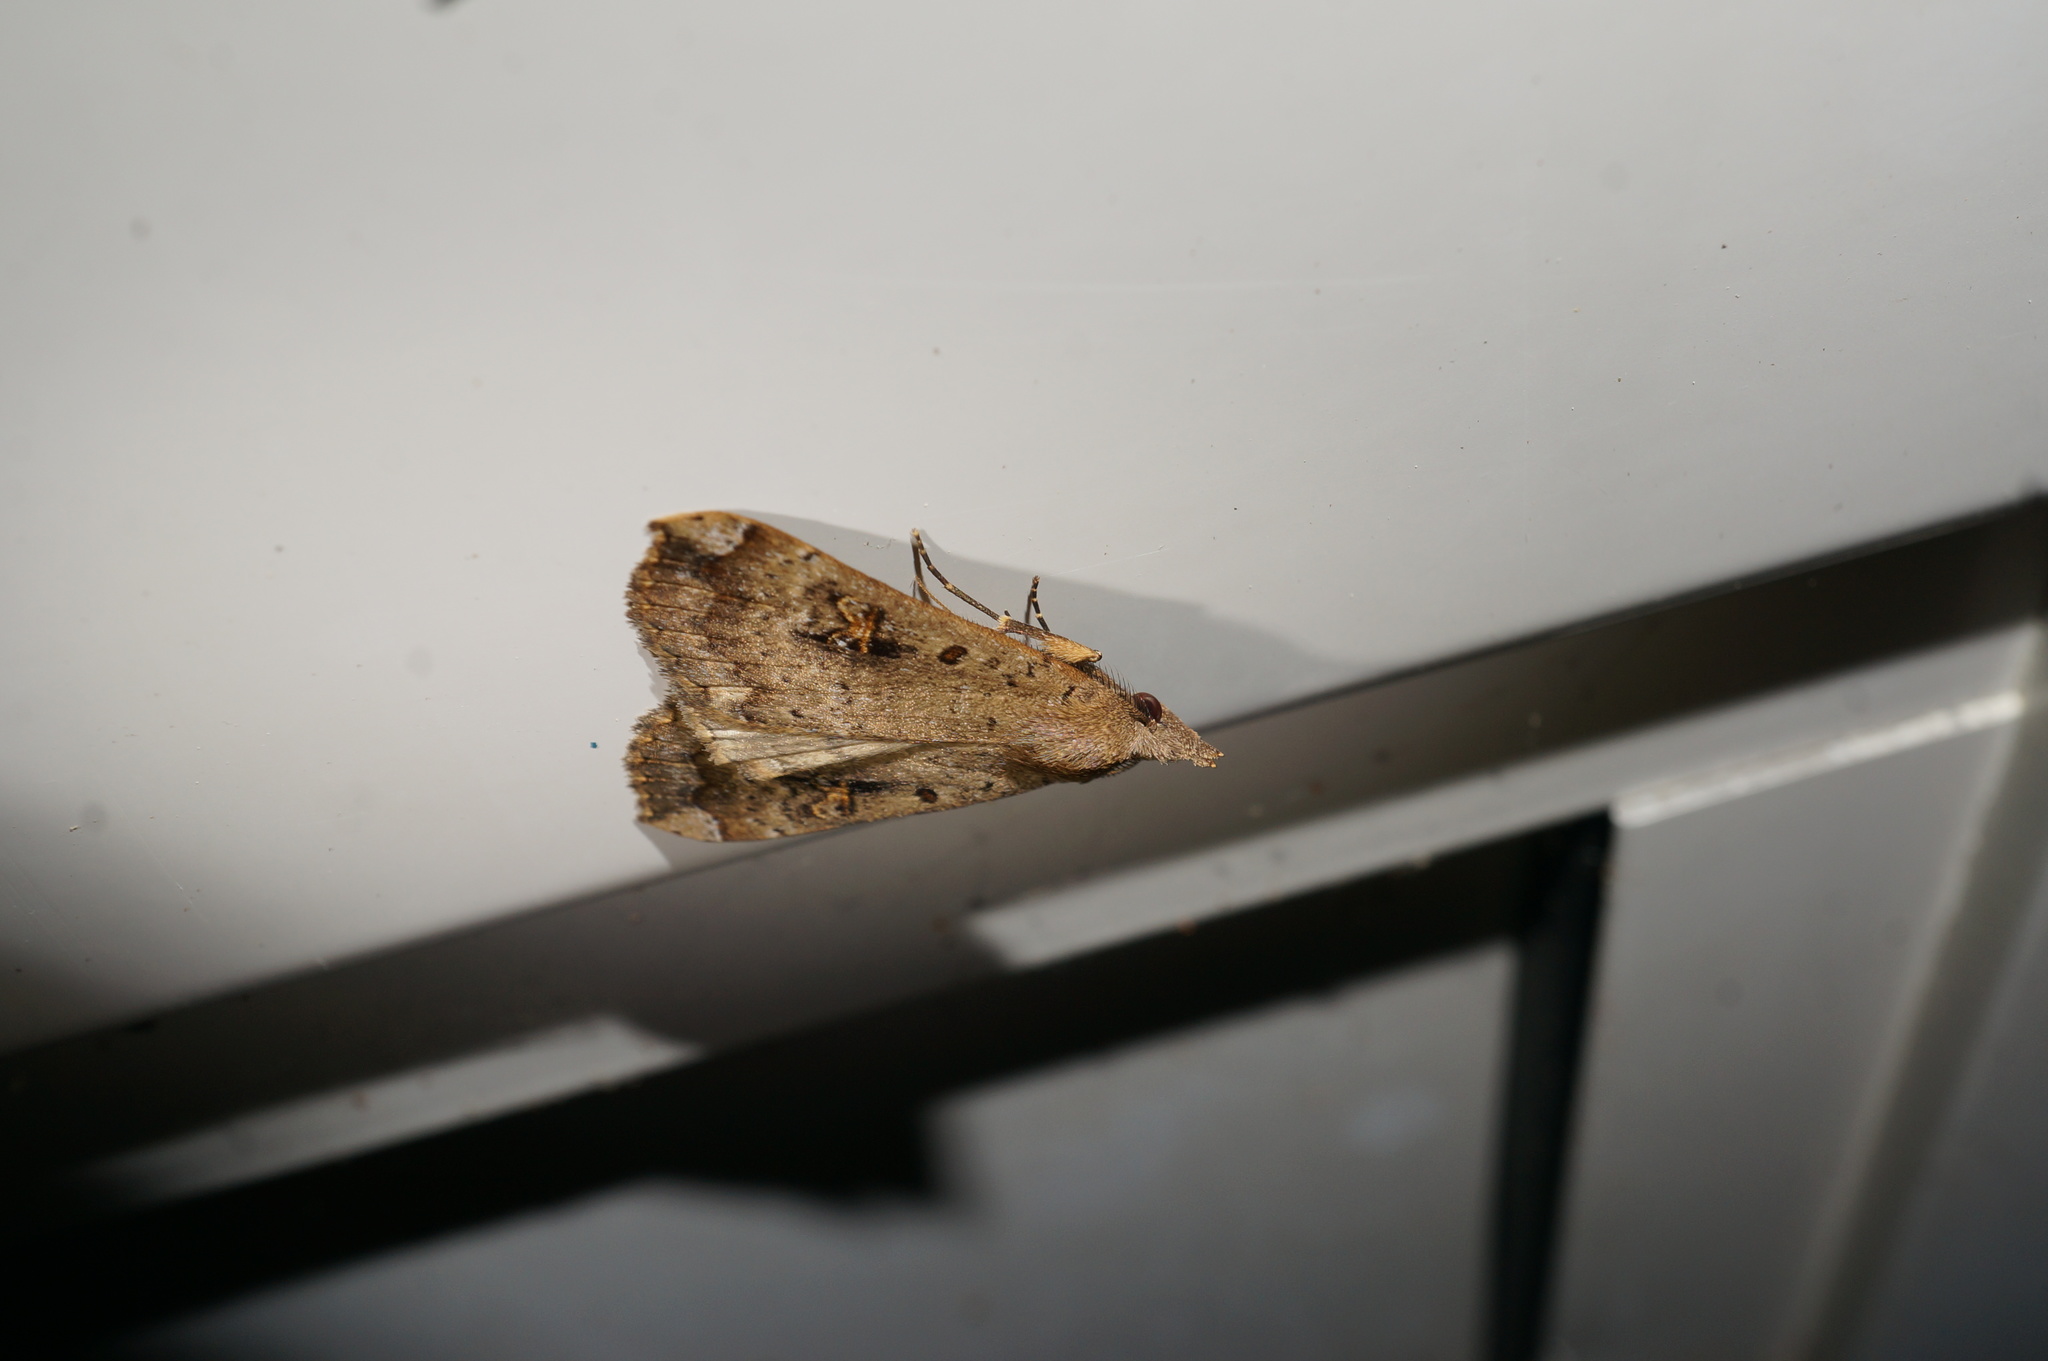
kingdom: Animalia
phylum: Arthropoda
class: Insecta
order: Lepidoptera
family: Erebidae
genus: Rhapsa
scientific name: Rhapsa scotosialis
